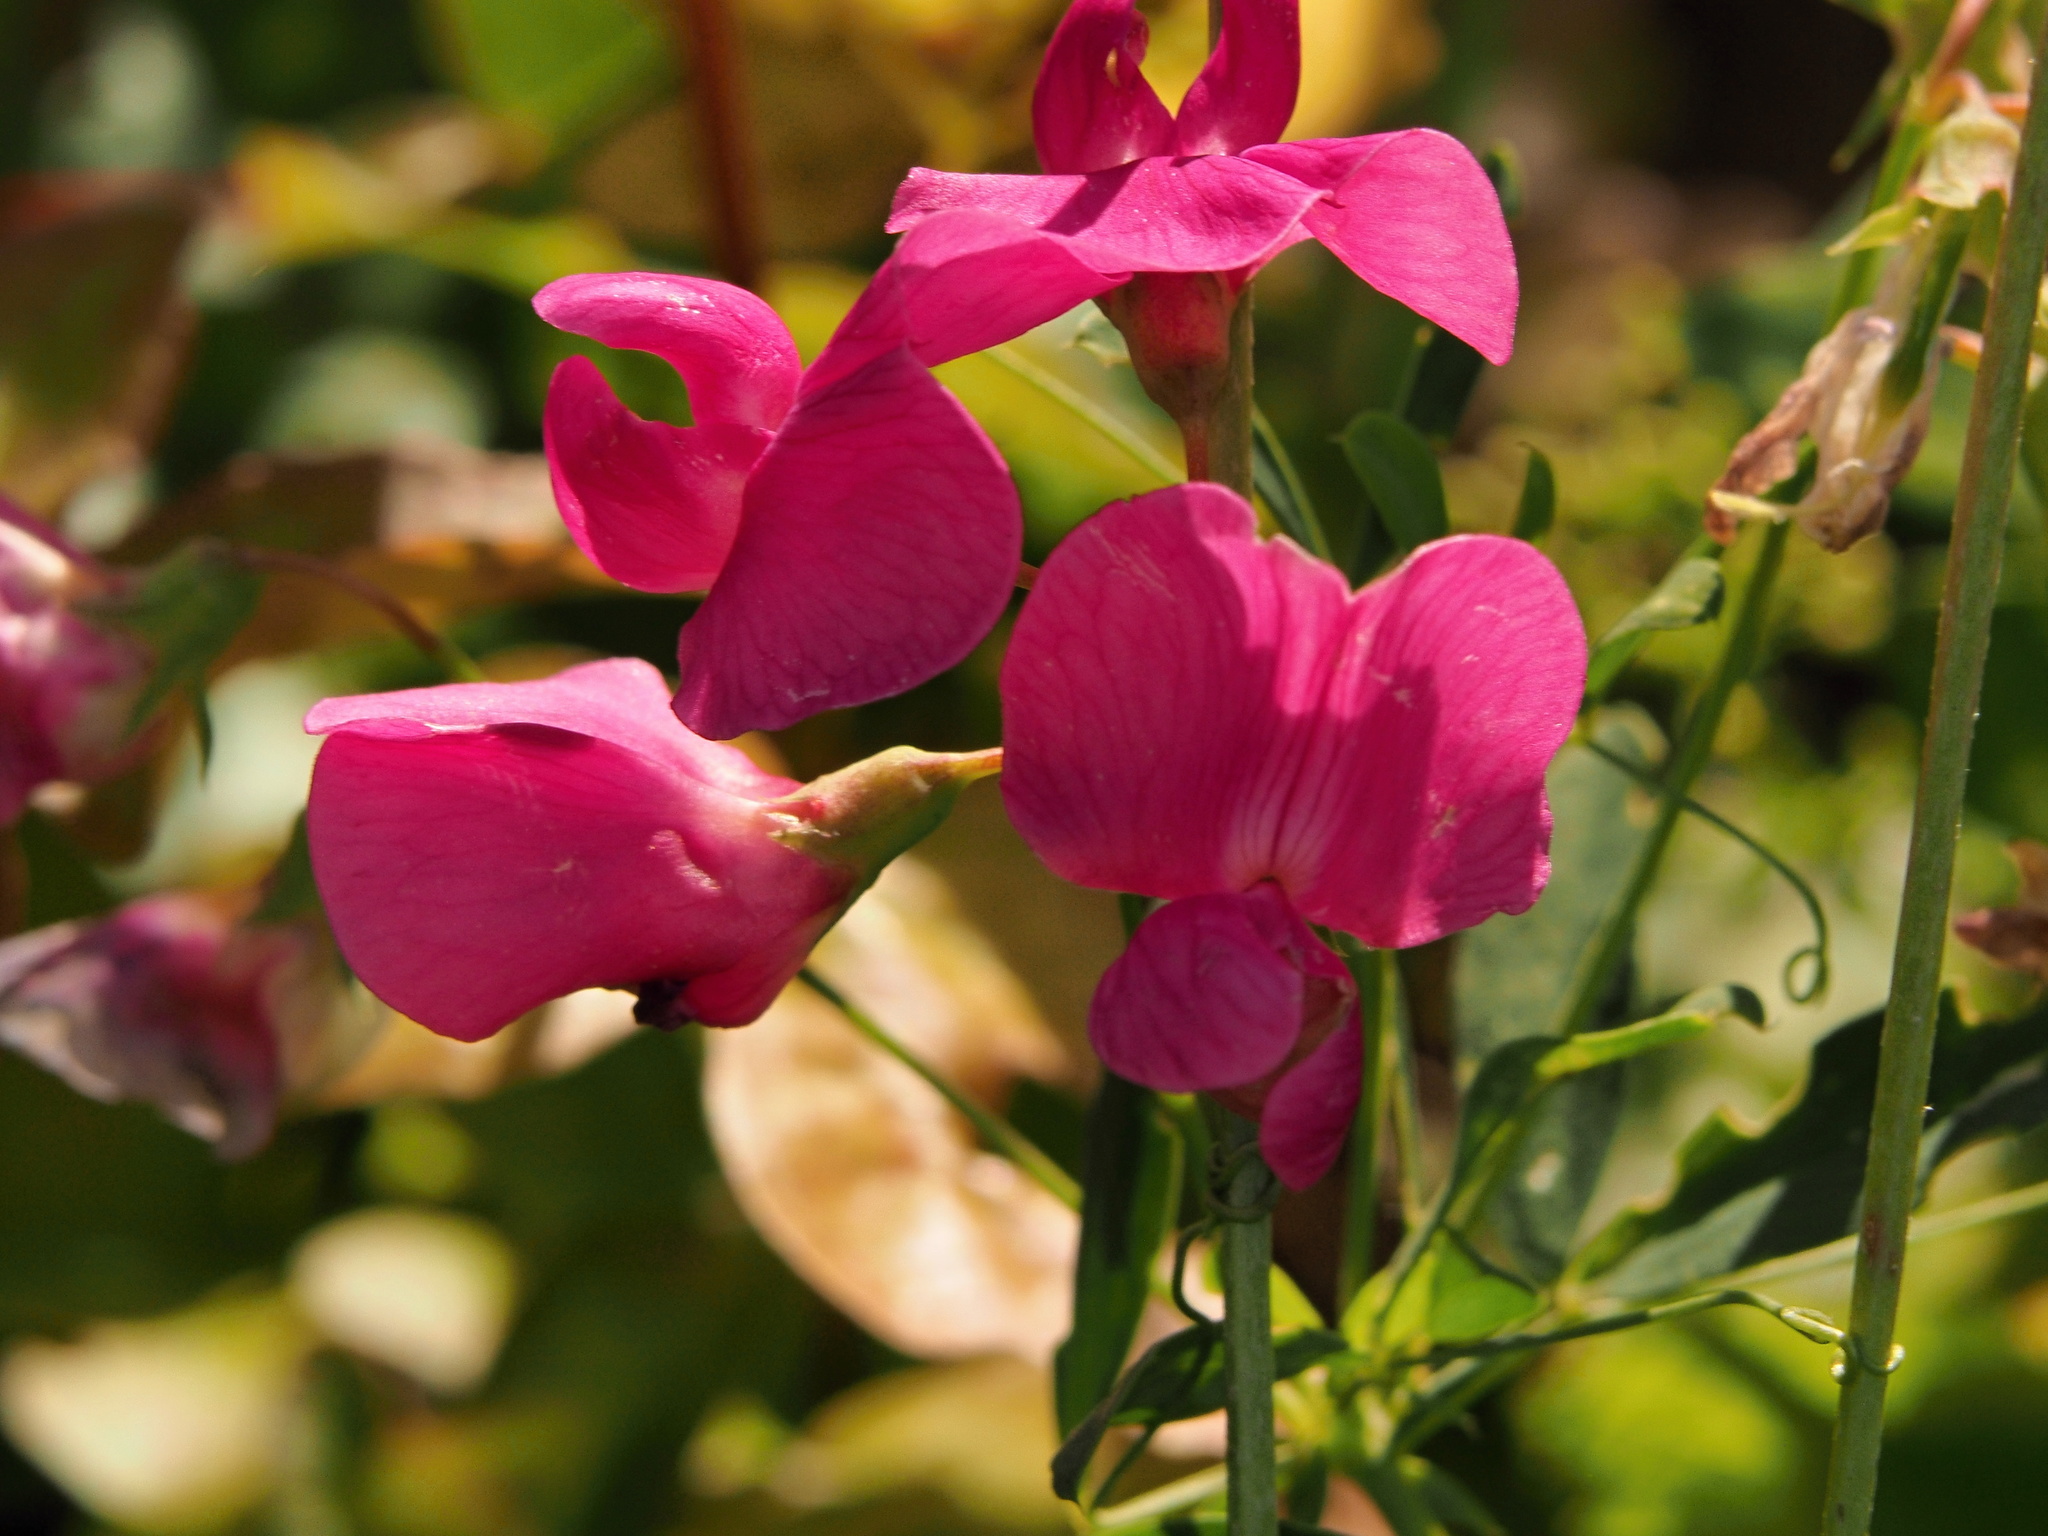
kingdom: Plantae
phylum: Tracheophyta
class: Magnoliopsida
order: Fabales
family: Fabaceae
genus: Lathyrus
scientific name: Lathyrus tuberosus
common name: Tuberous pea
